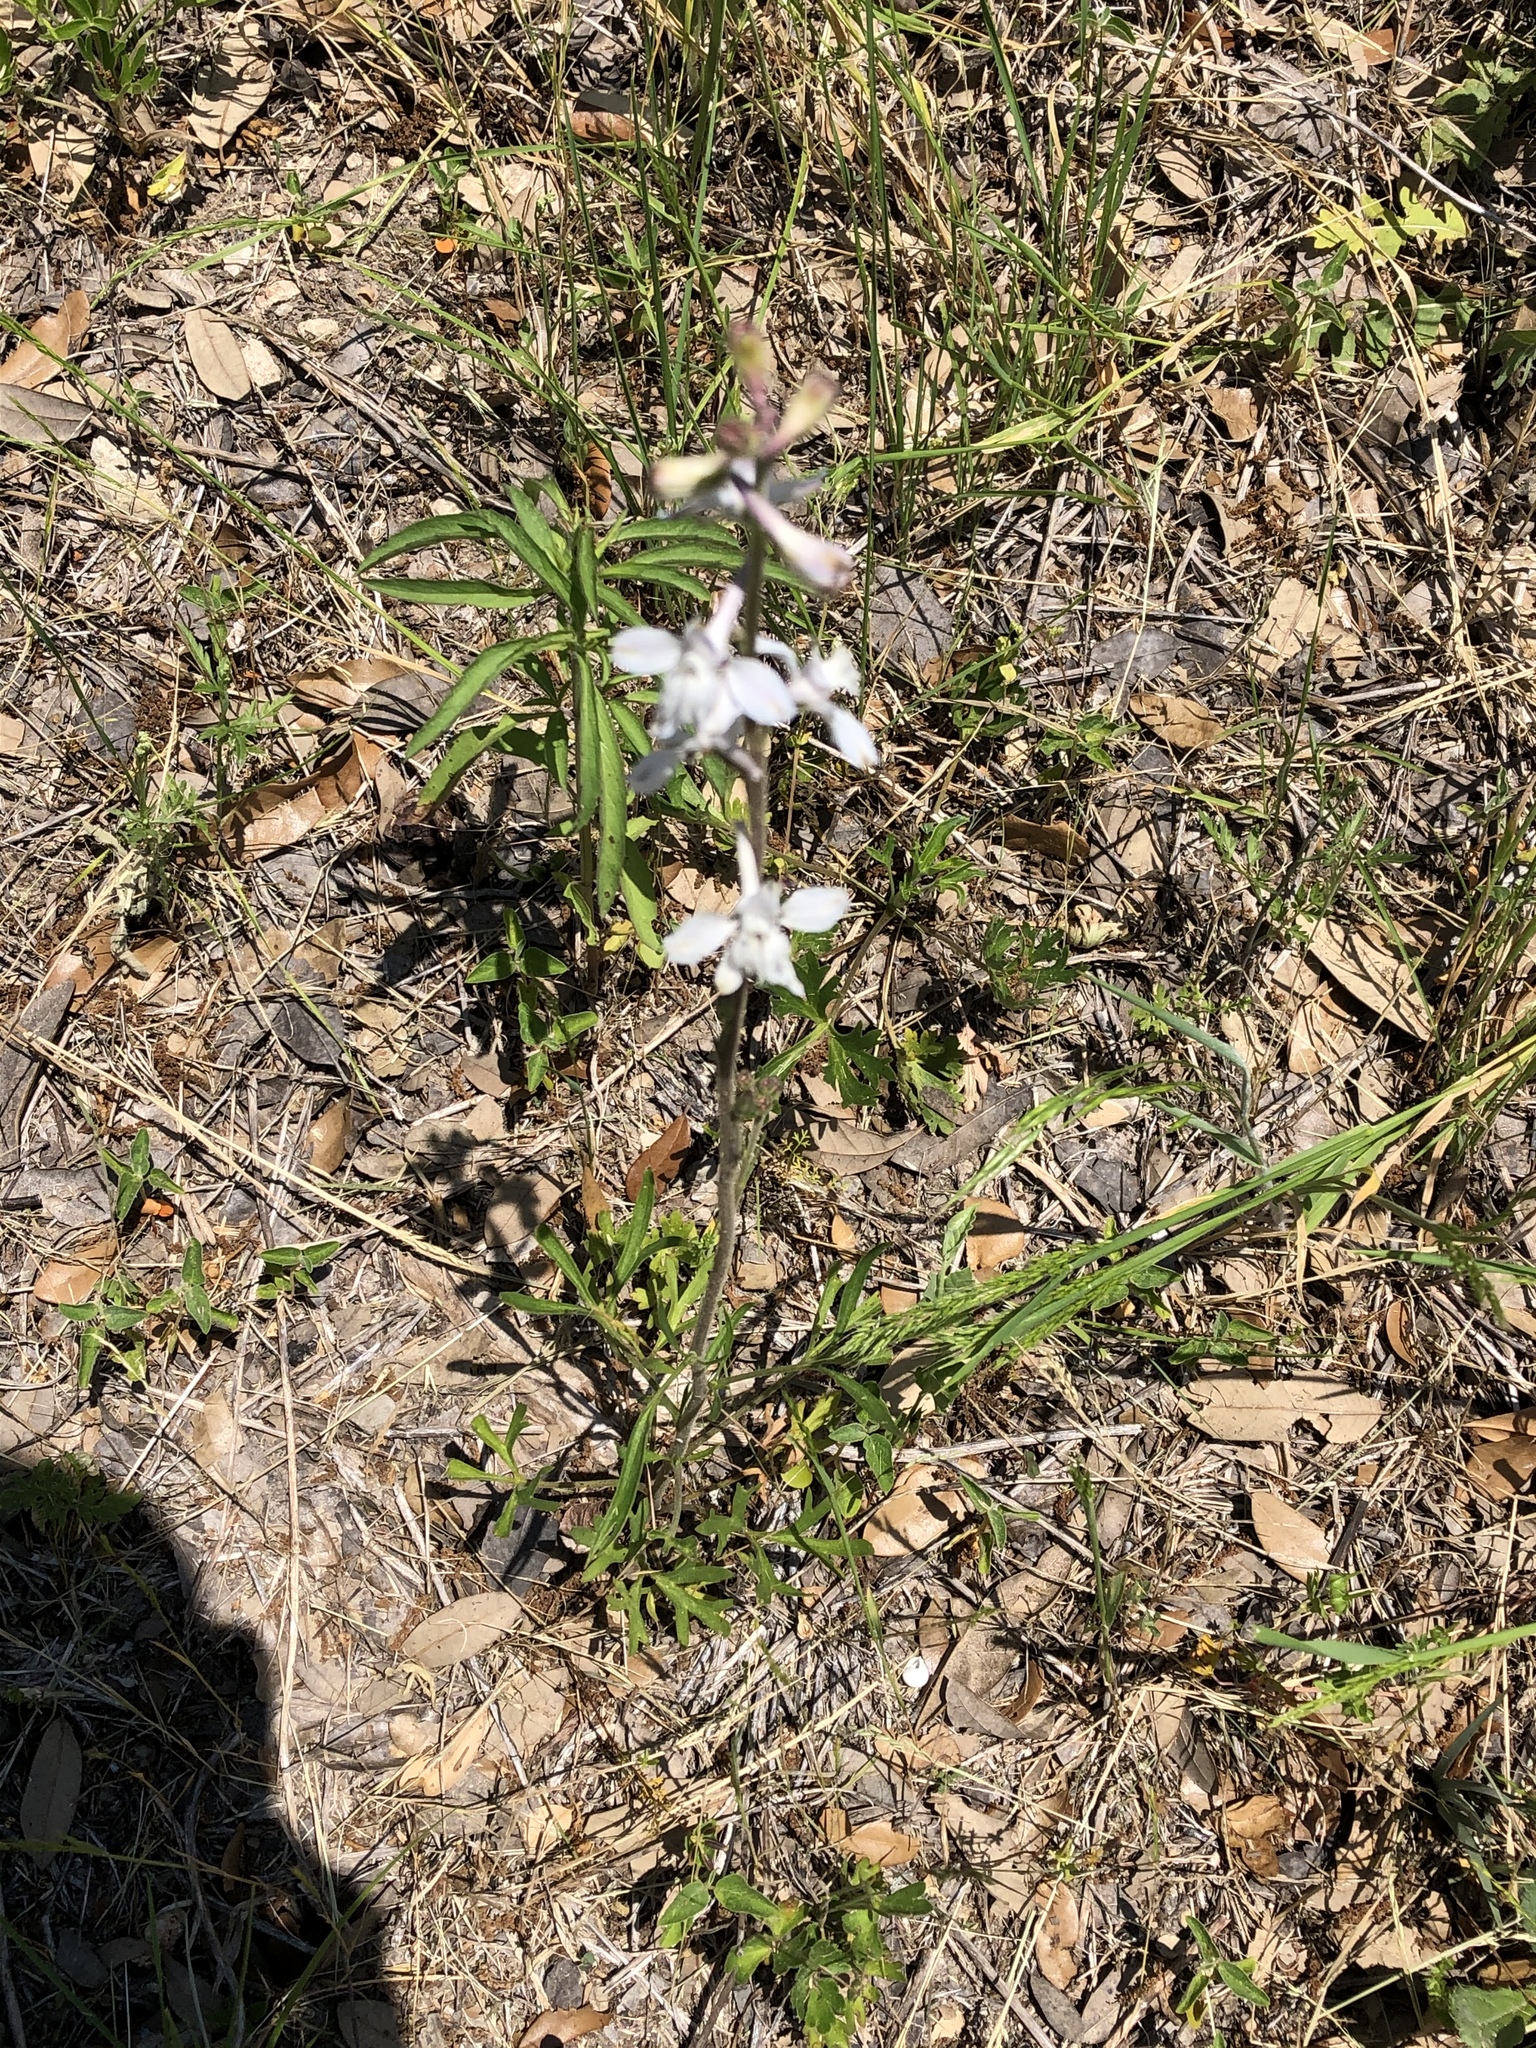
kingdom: Plantae
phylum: Tracheophyta
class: Magnoliopsida
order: Ranunculales
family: Ranunculaceae
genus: Delphinium
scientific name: Delphinium carolinianum
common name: Carolina larkspur
